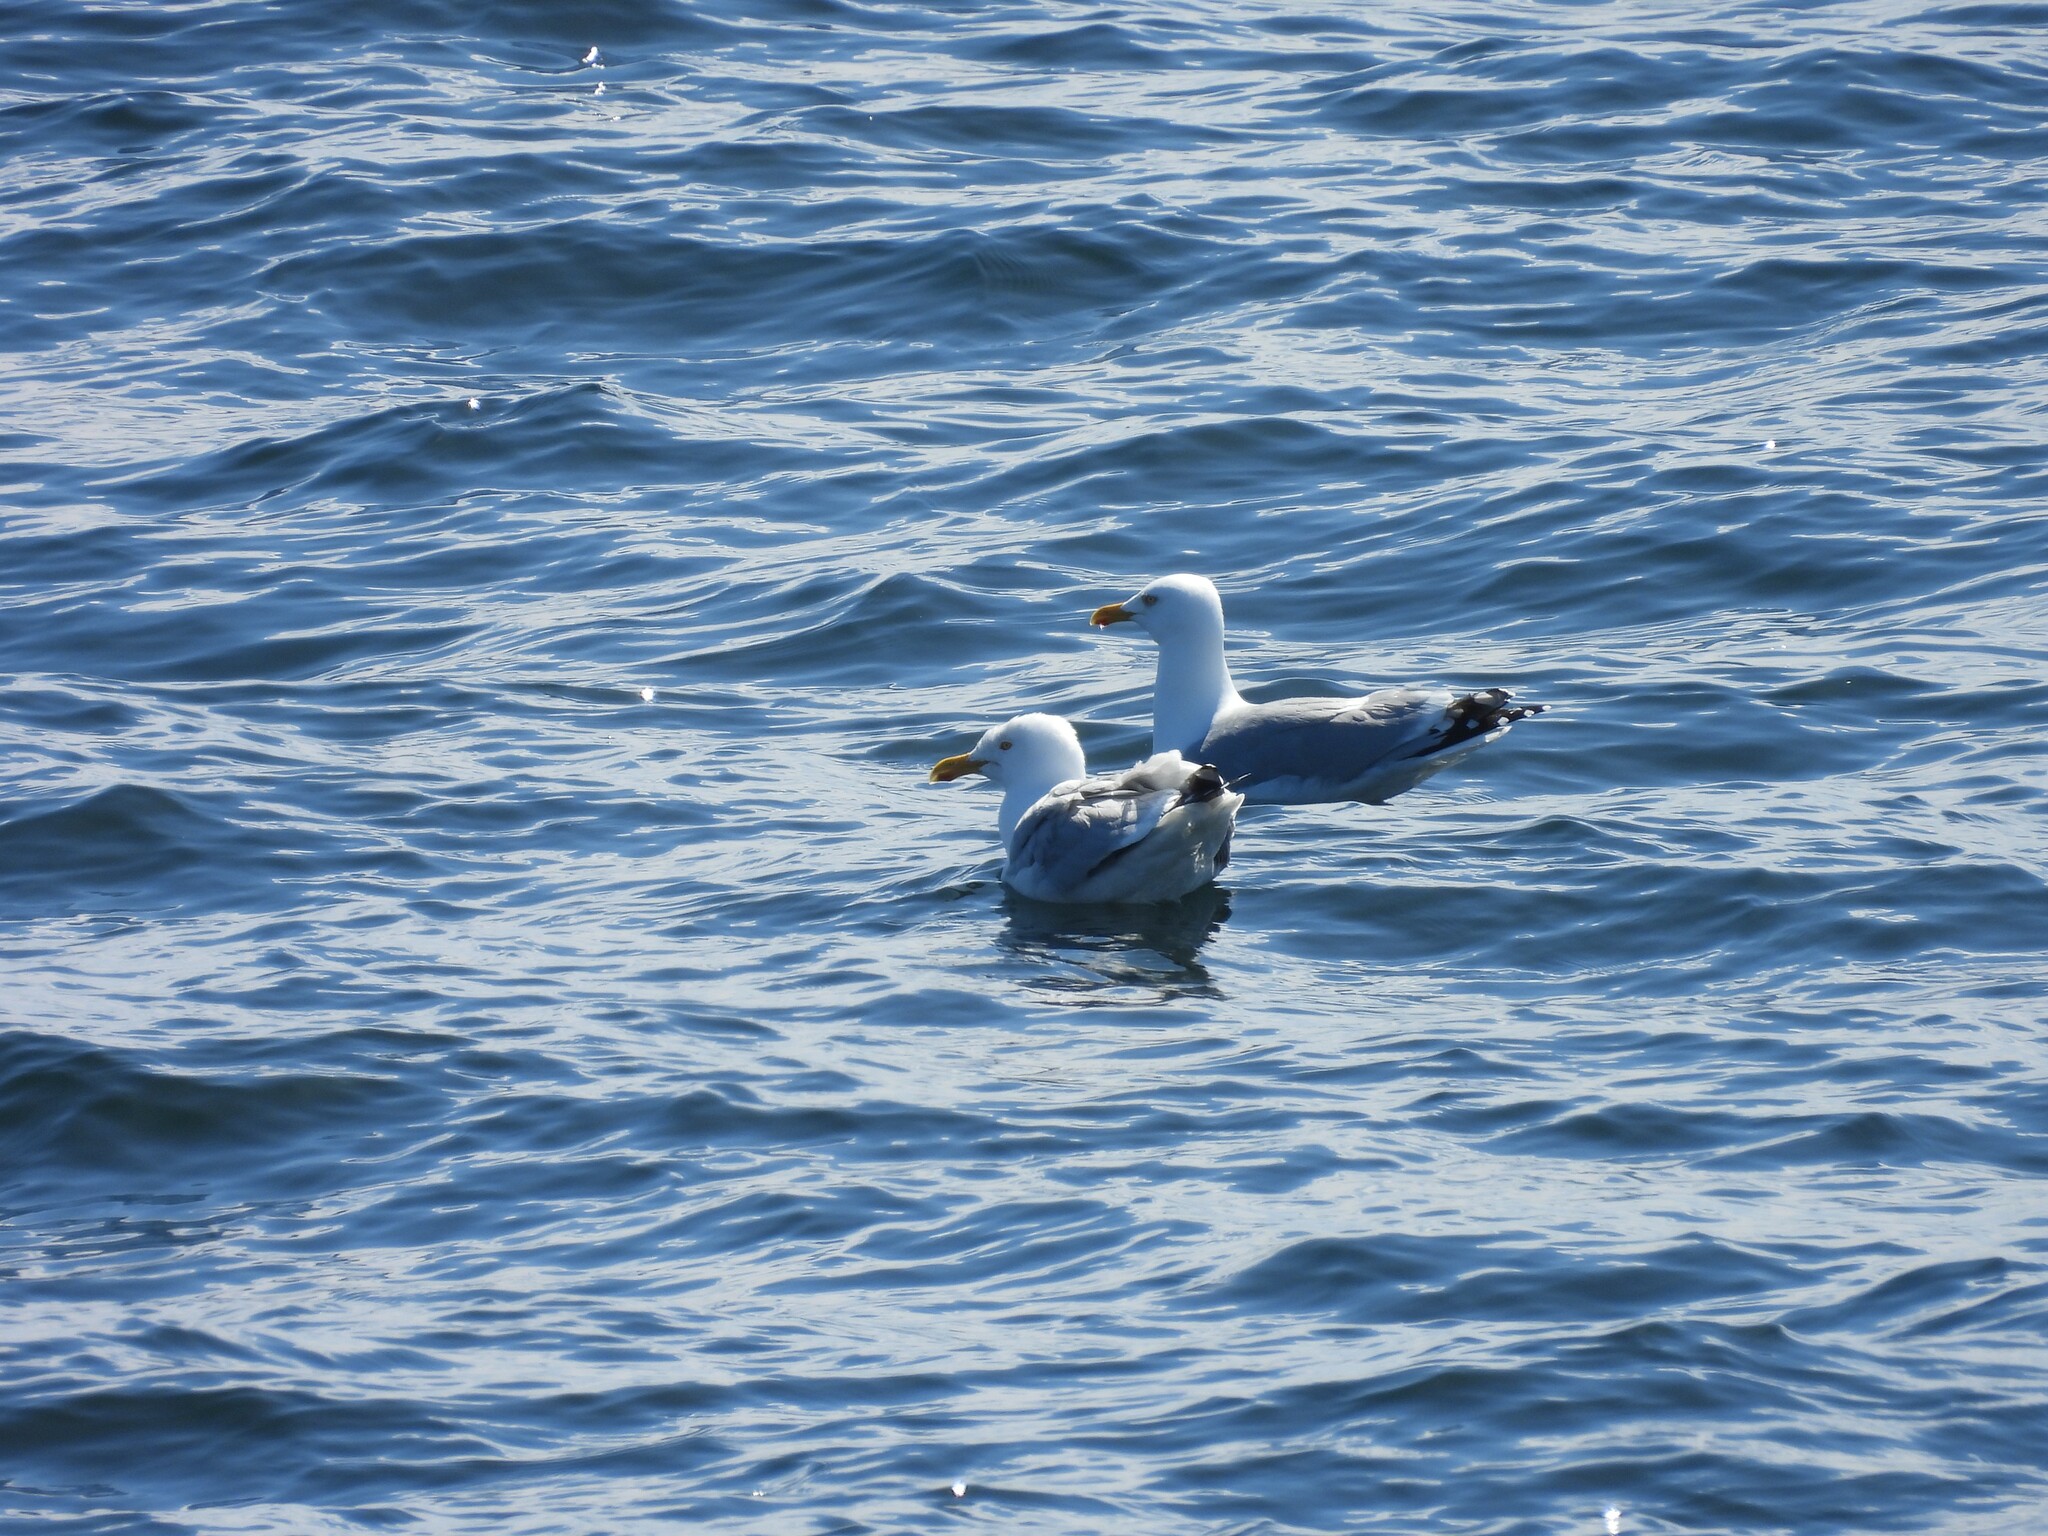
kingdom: Animalia
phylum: Chordata
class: Aves
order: Charadriiformes
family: Laridae
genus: Larus
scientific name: Larus argentatus
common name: Herring gull
